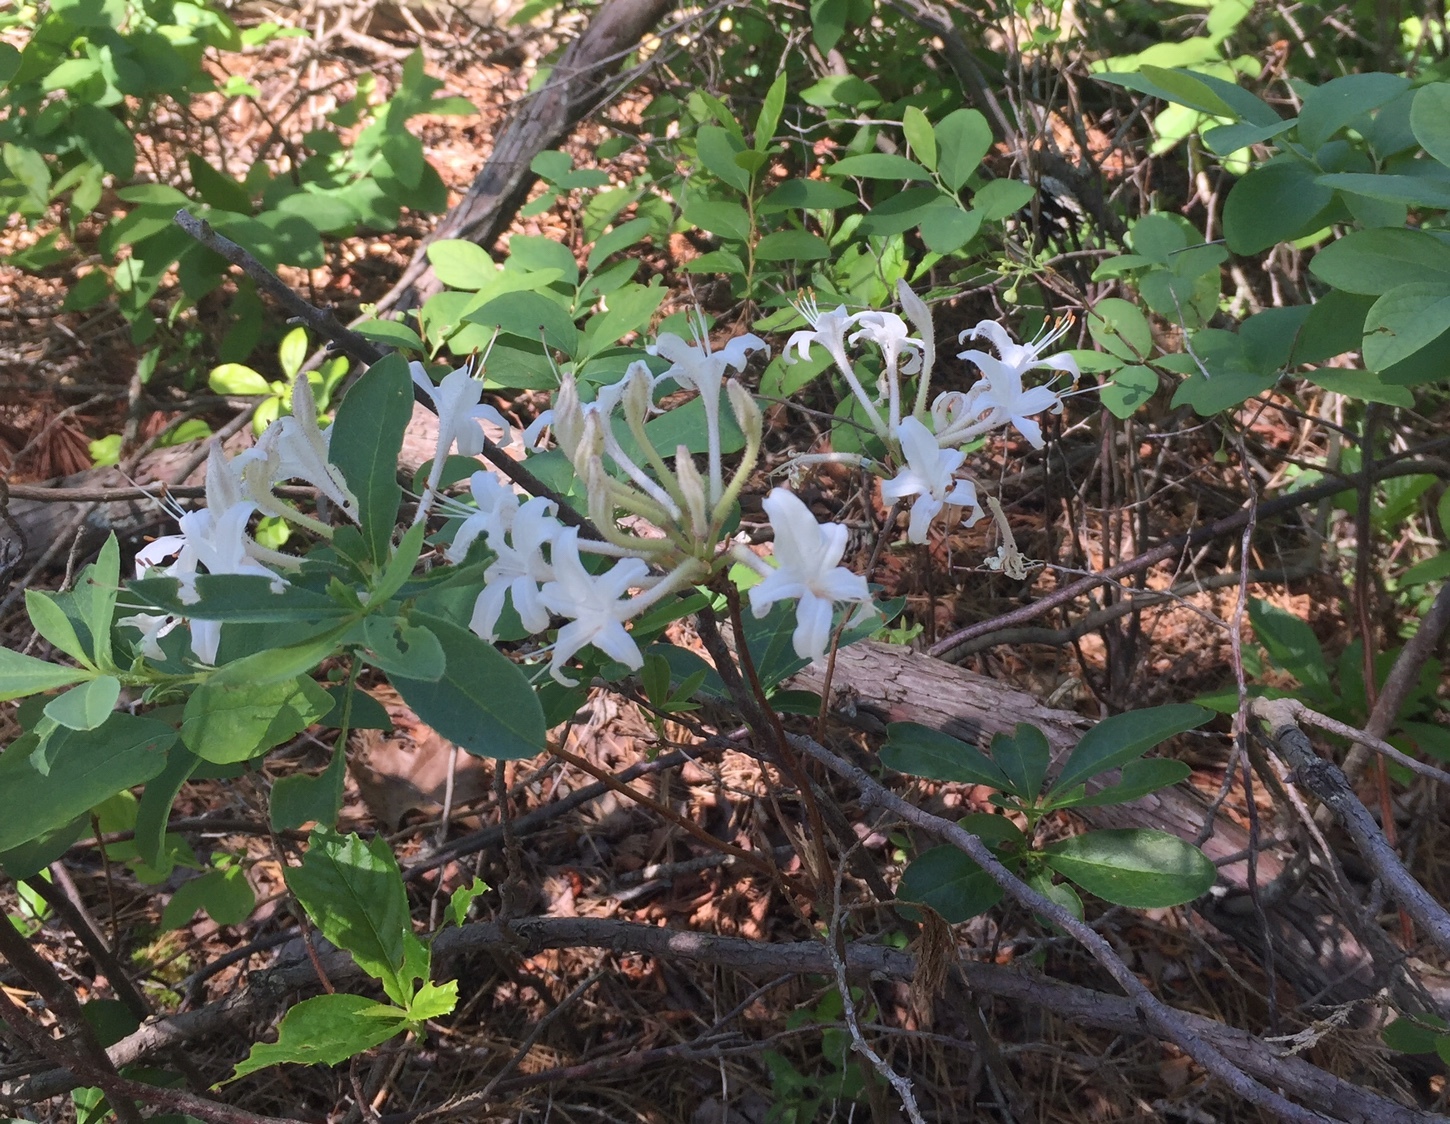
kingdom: Plantae
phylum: Tracheophyta
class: Magnoliopsida
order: Ericales
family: Ericaceae
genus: Rhododendron
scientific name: Rhododendron viscosum
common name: Clammy azalea
